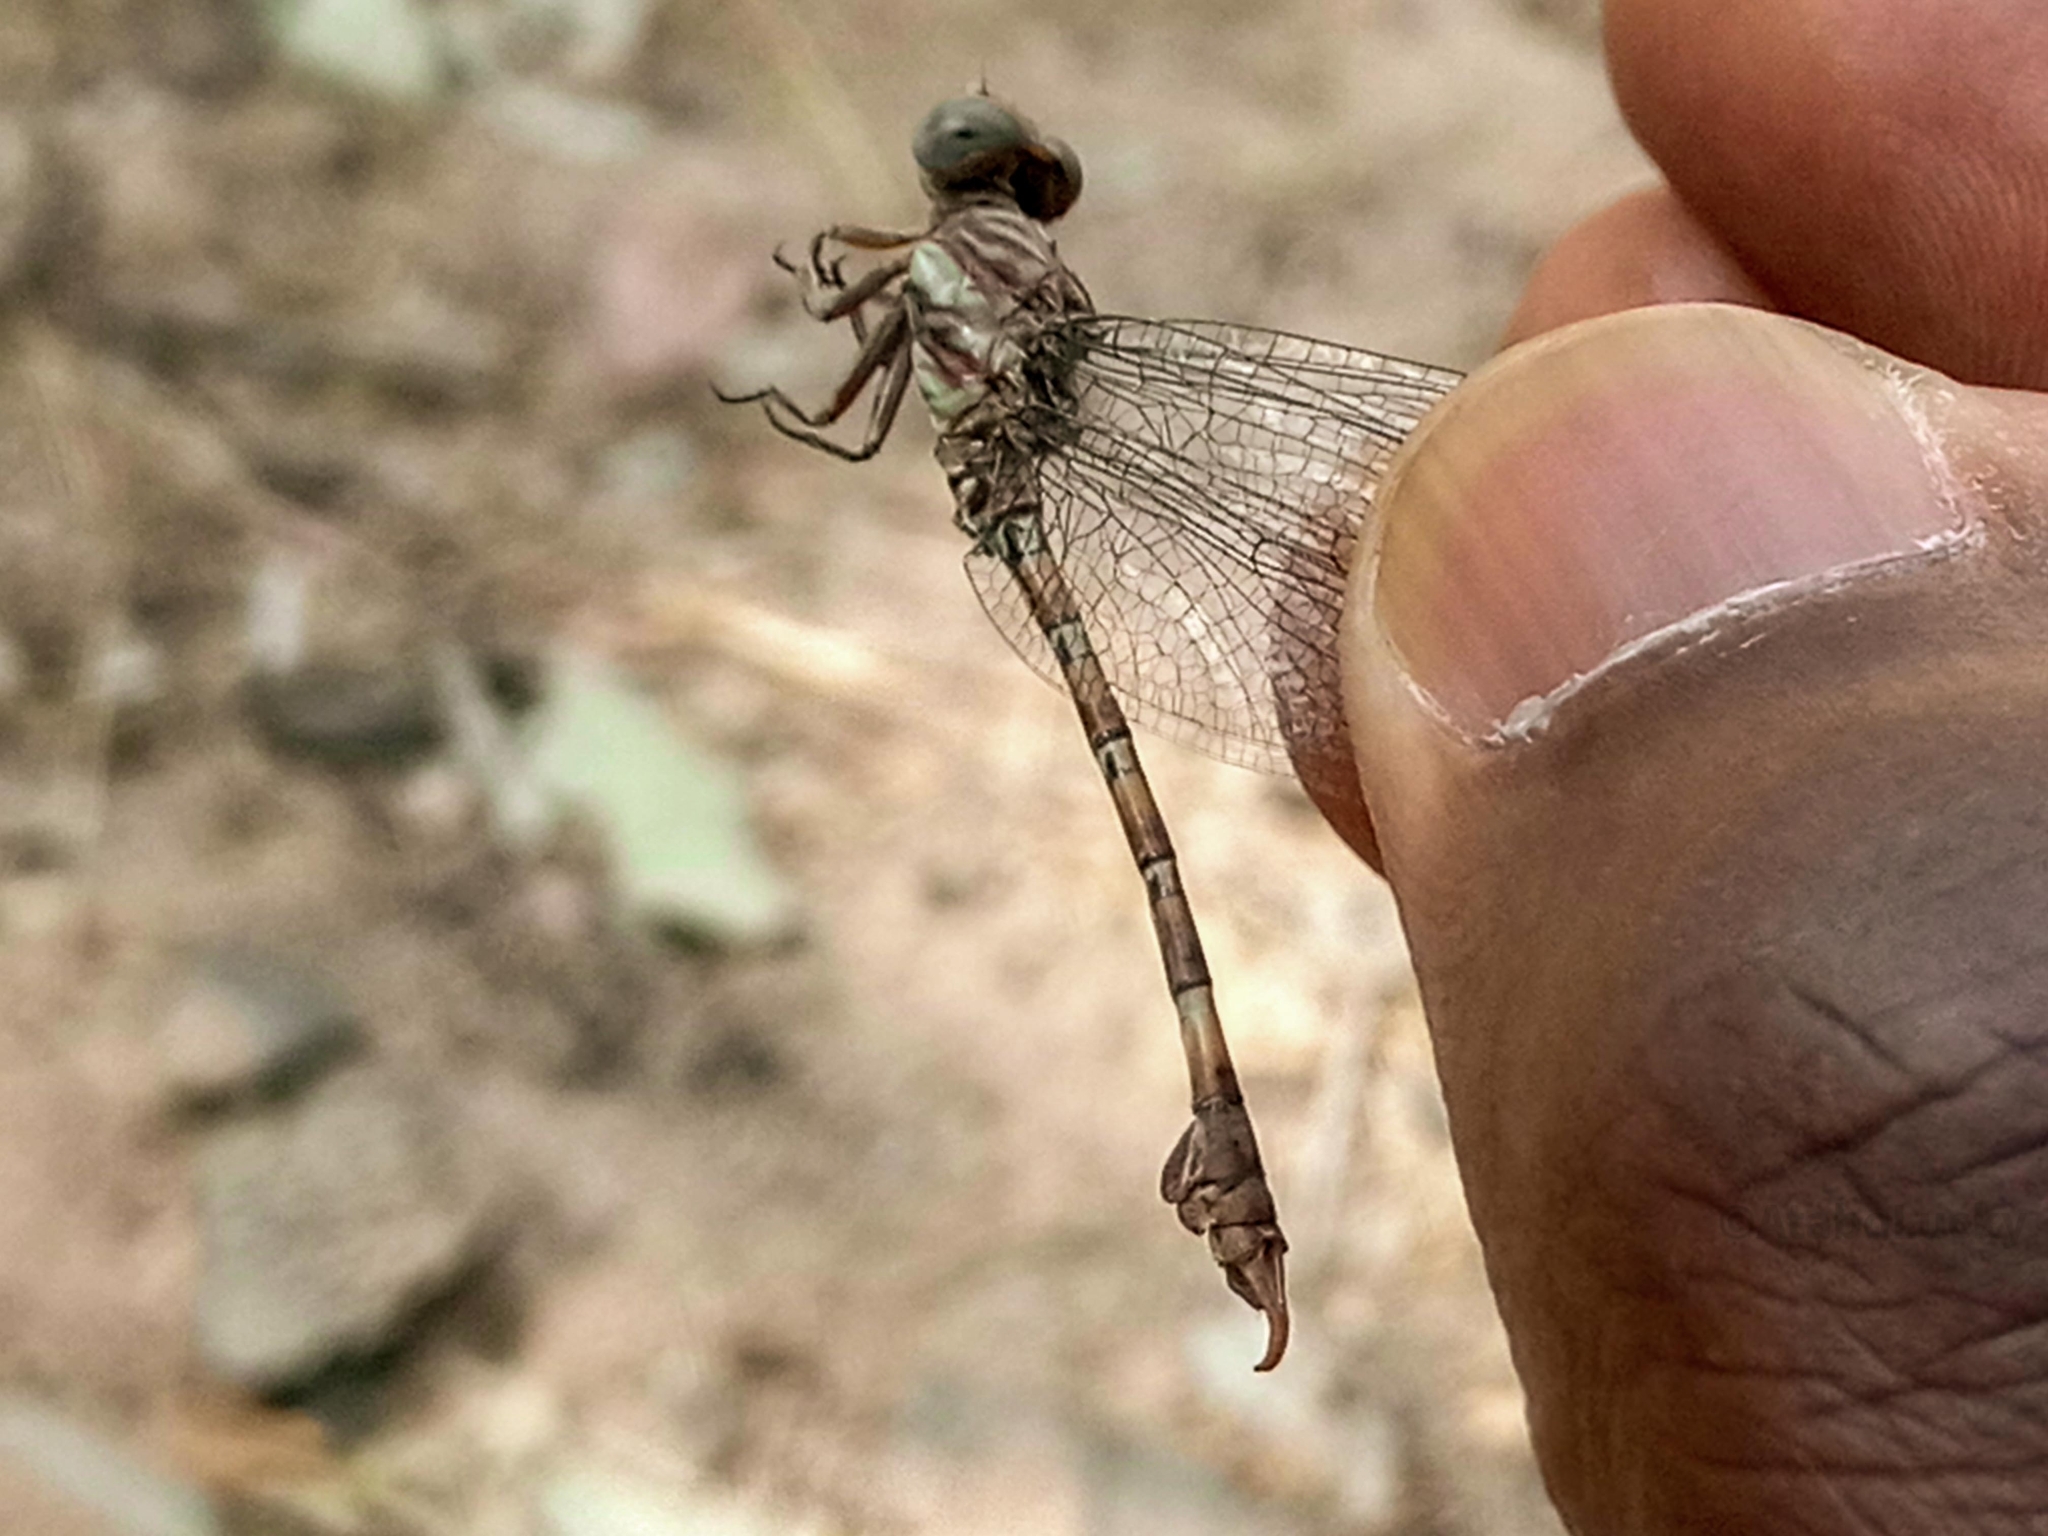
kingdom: Animalia
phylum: Arthropoda
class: Insecta
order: Odonata
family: Gomphidae
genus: Paragomphus
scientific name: Paragomphus genei
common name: Common hooktail
